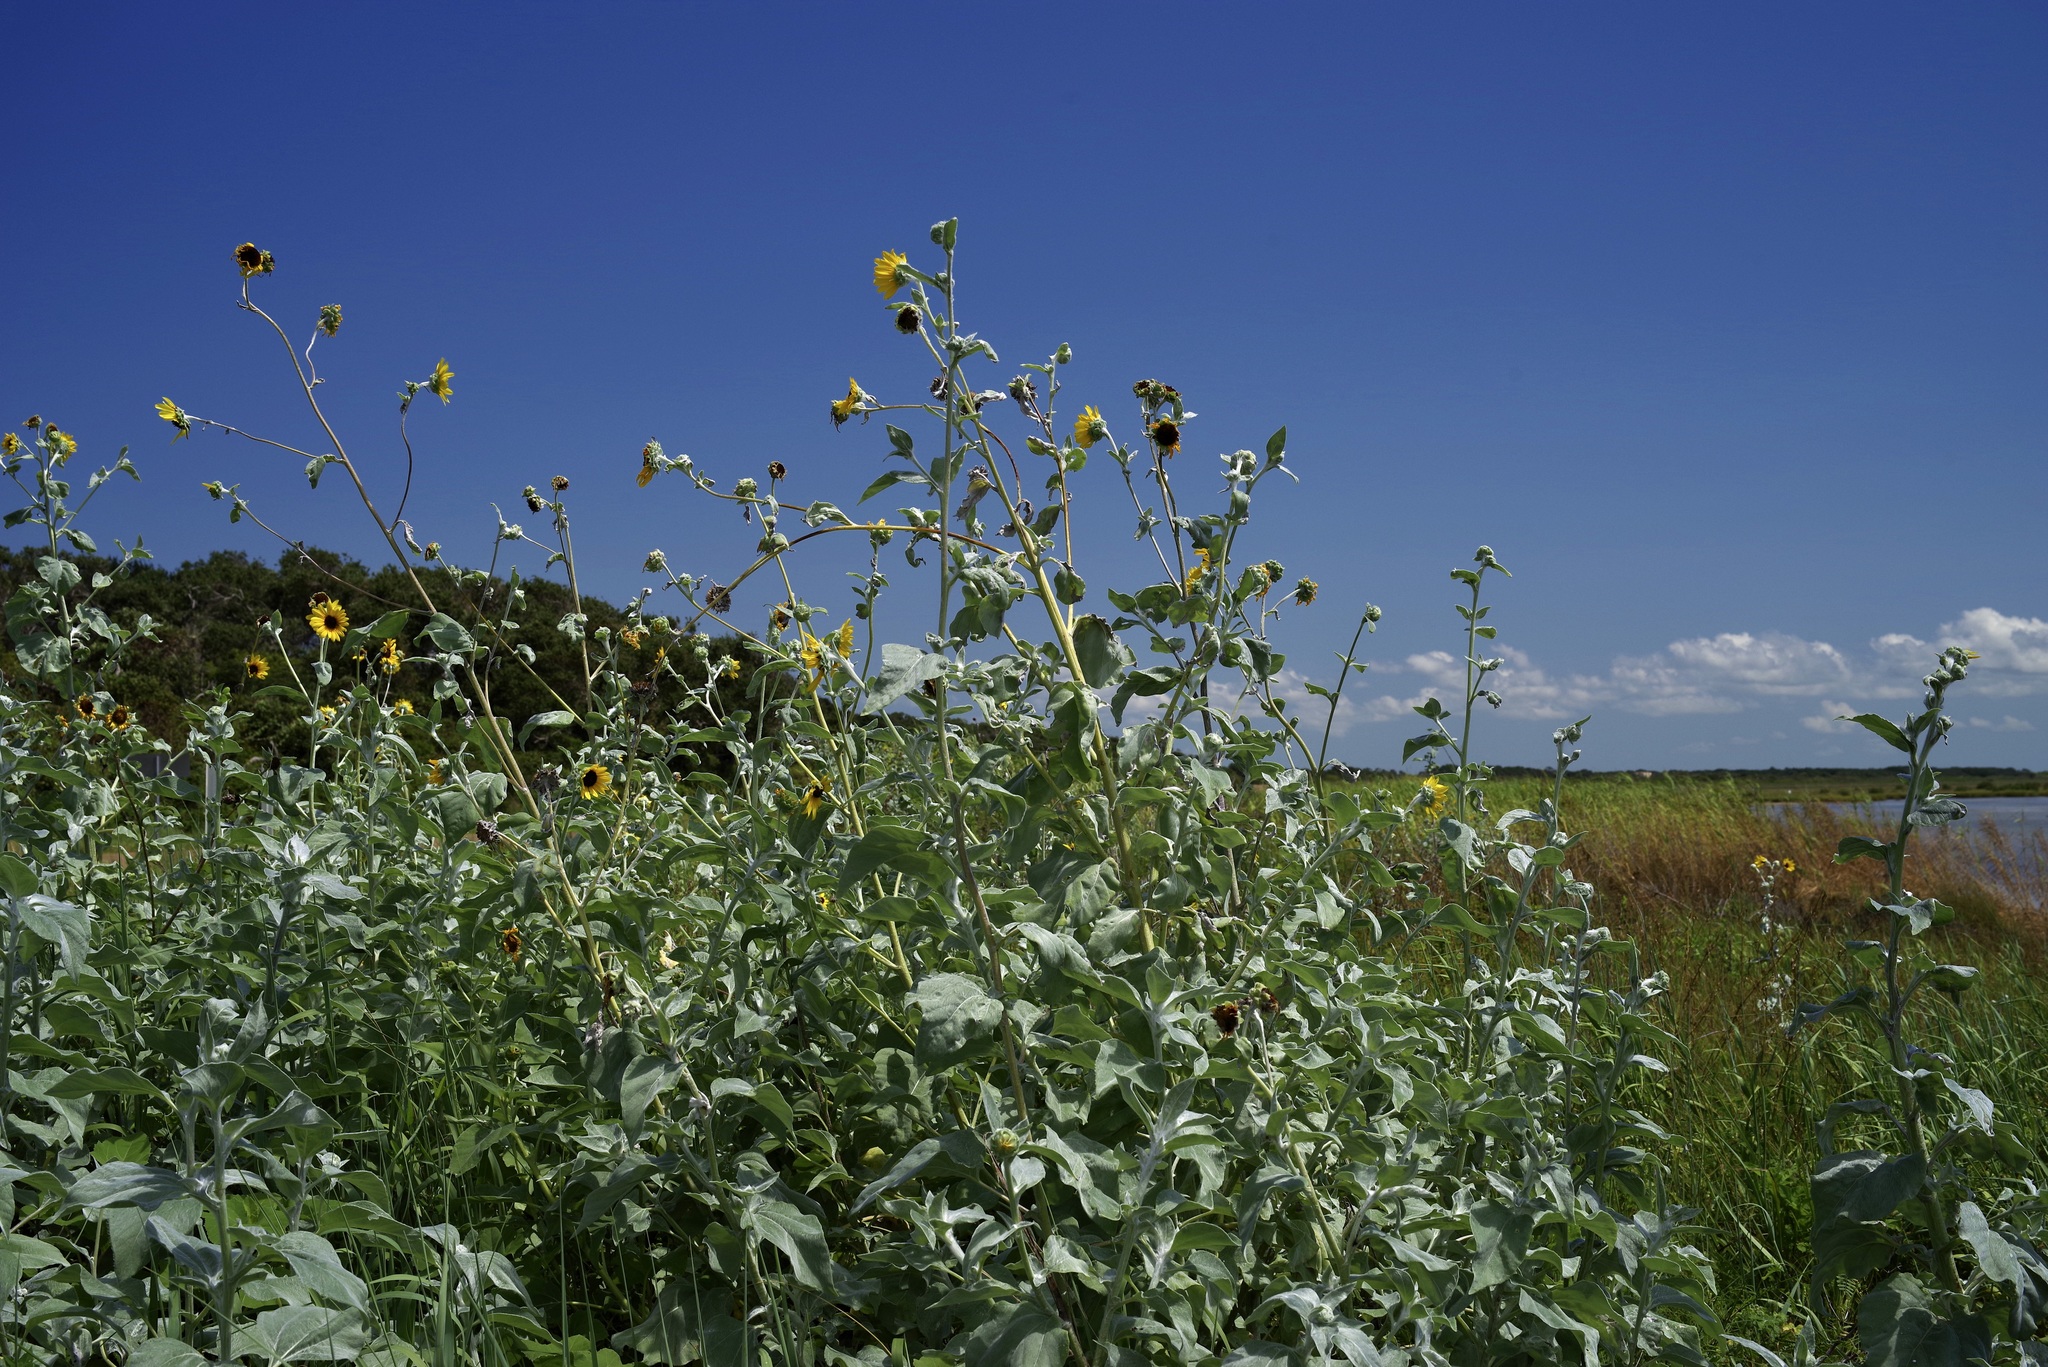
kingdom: Plantae
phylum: Tracheophyta
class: Magnoliopsida
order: Asterales
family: Asteraceae
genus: Helianthus
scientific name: Helianthus argophyllus
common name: Silverleaf sunflower
